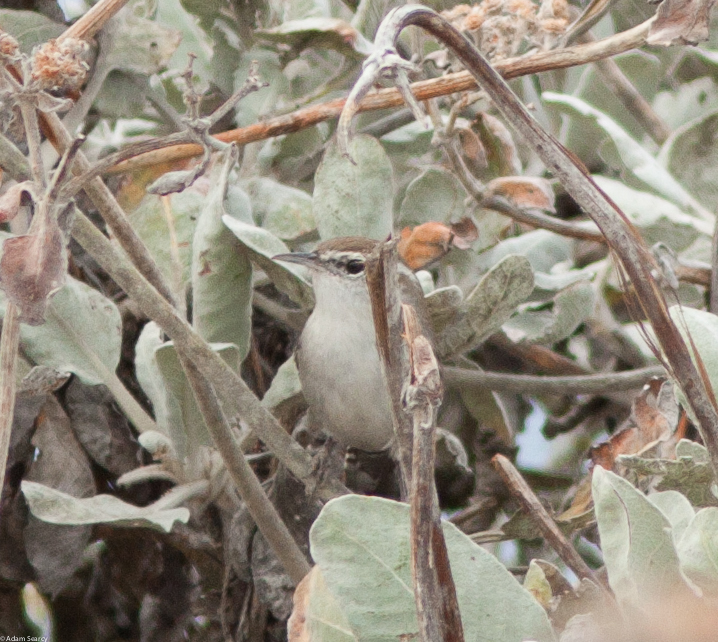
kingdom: Animalia
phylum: Chordata
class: Aves
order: Passeriformes
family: Troglodytidae
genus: Thryomanes
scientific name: Thryomanes bewickii
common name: Bewick's wren
